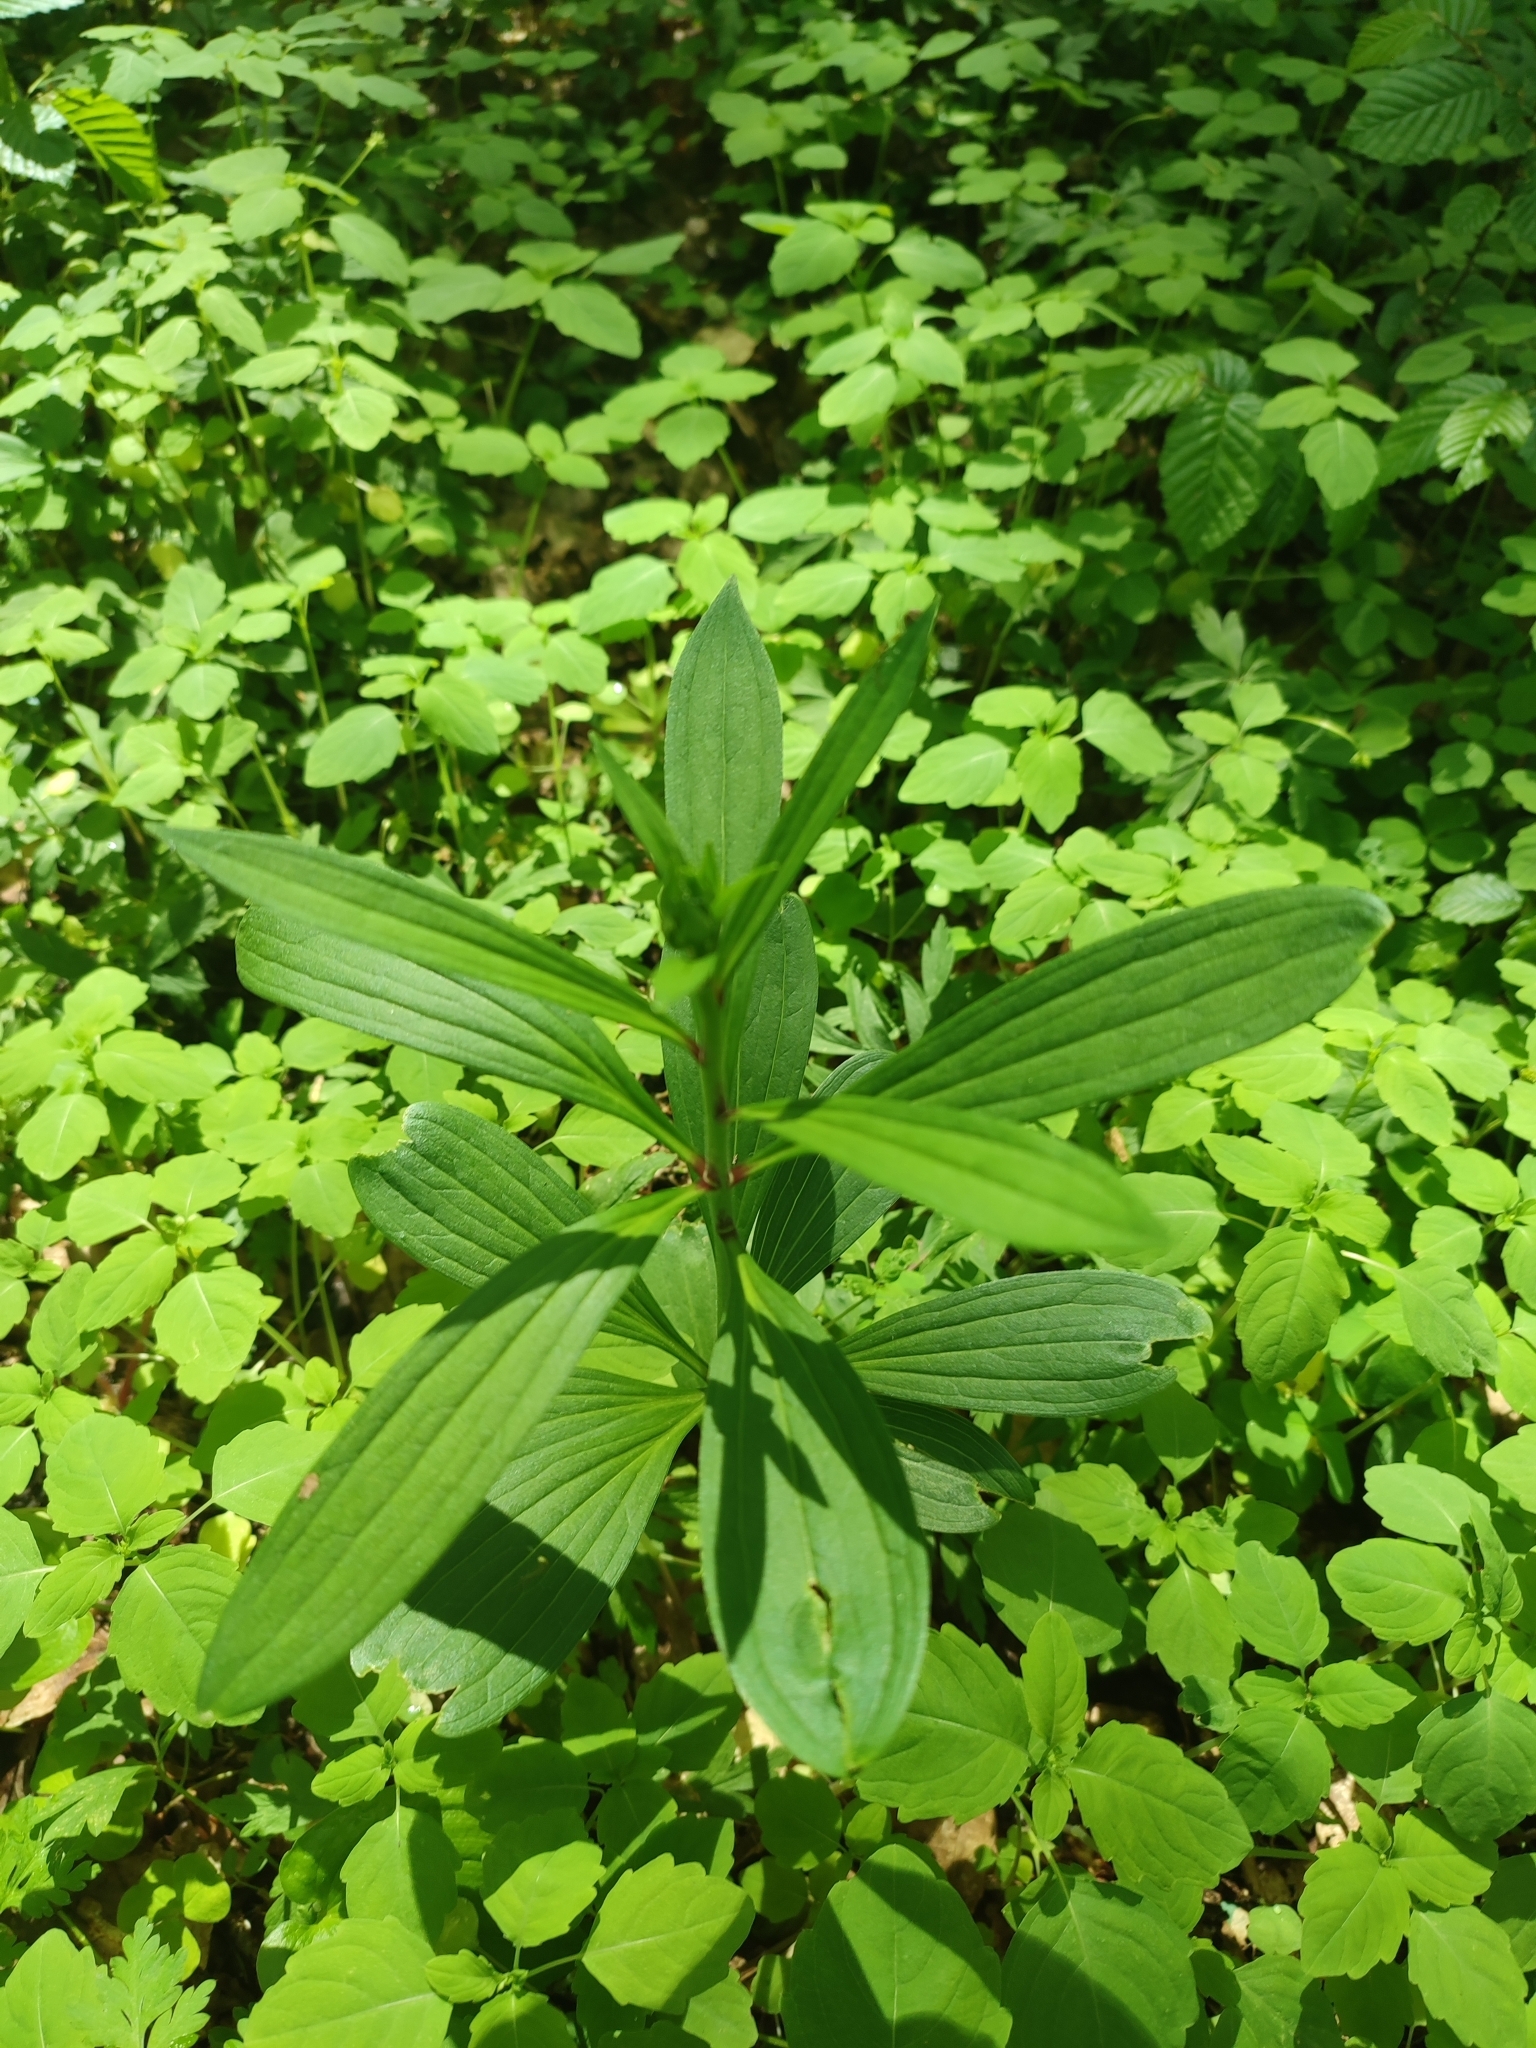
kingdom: Plantae
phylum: Tracheophyta
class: Liliopsida
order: Liliales
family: Liliaceae
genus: Lilium
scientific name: Lilium martagon
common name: Martagon lily
